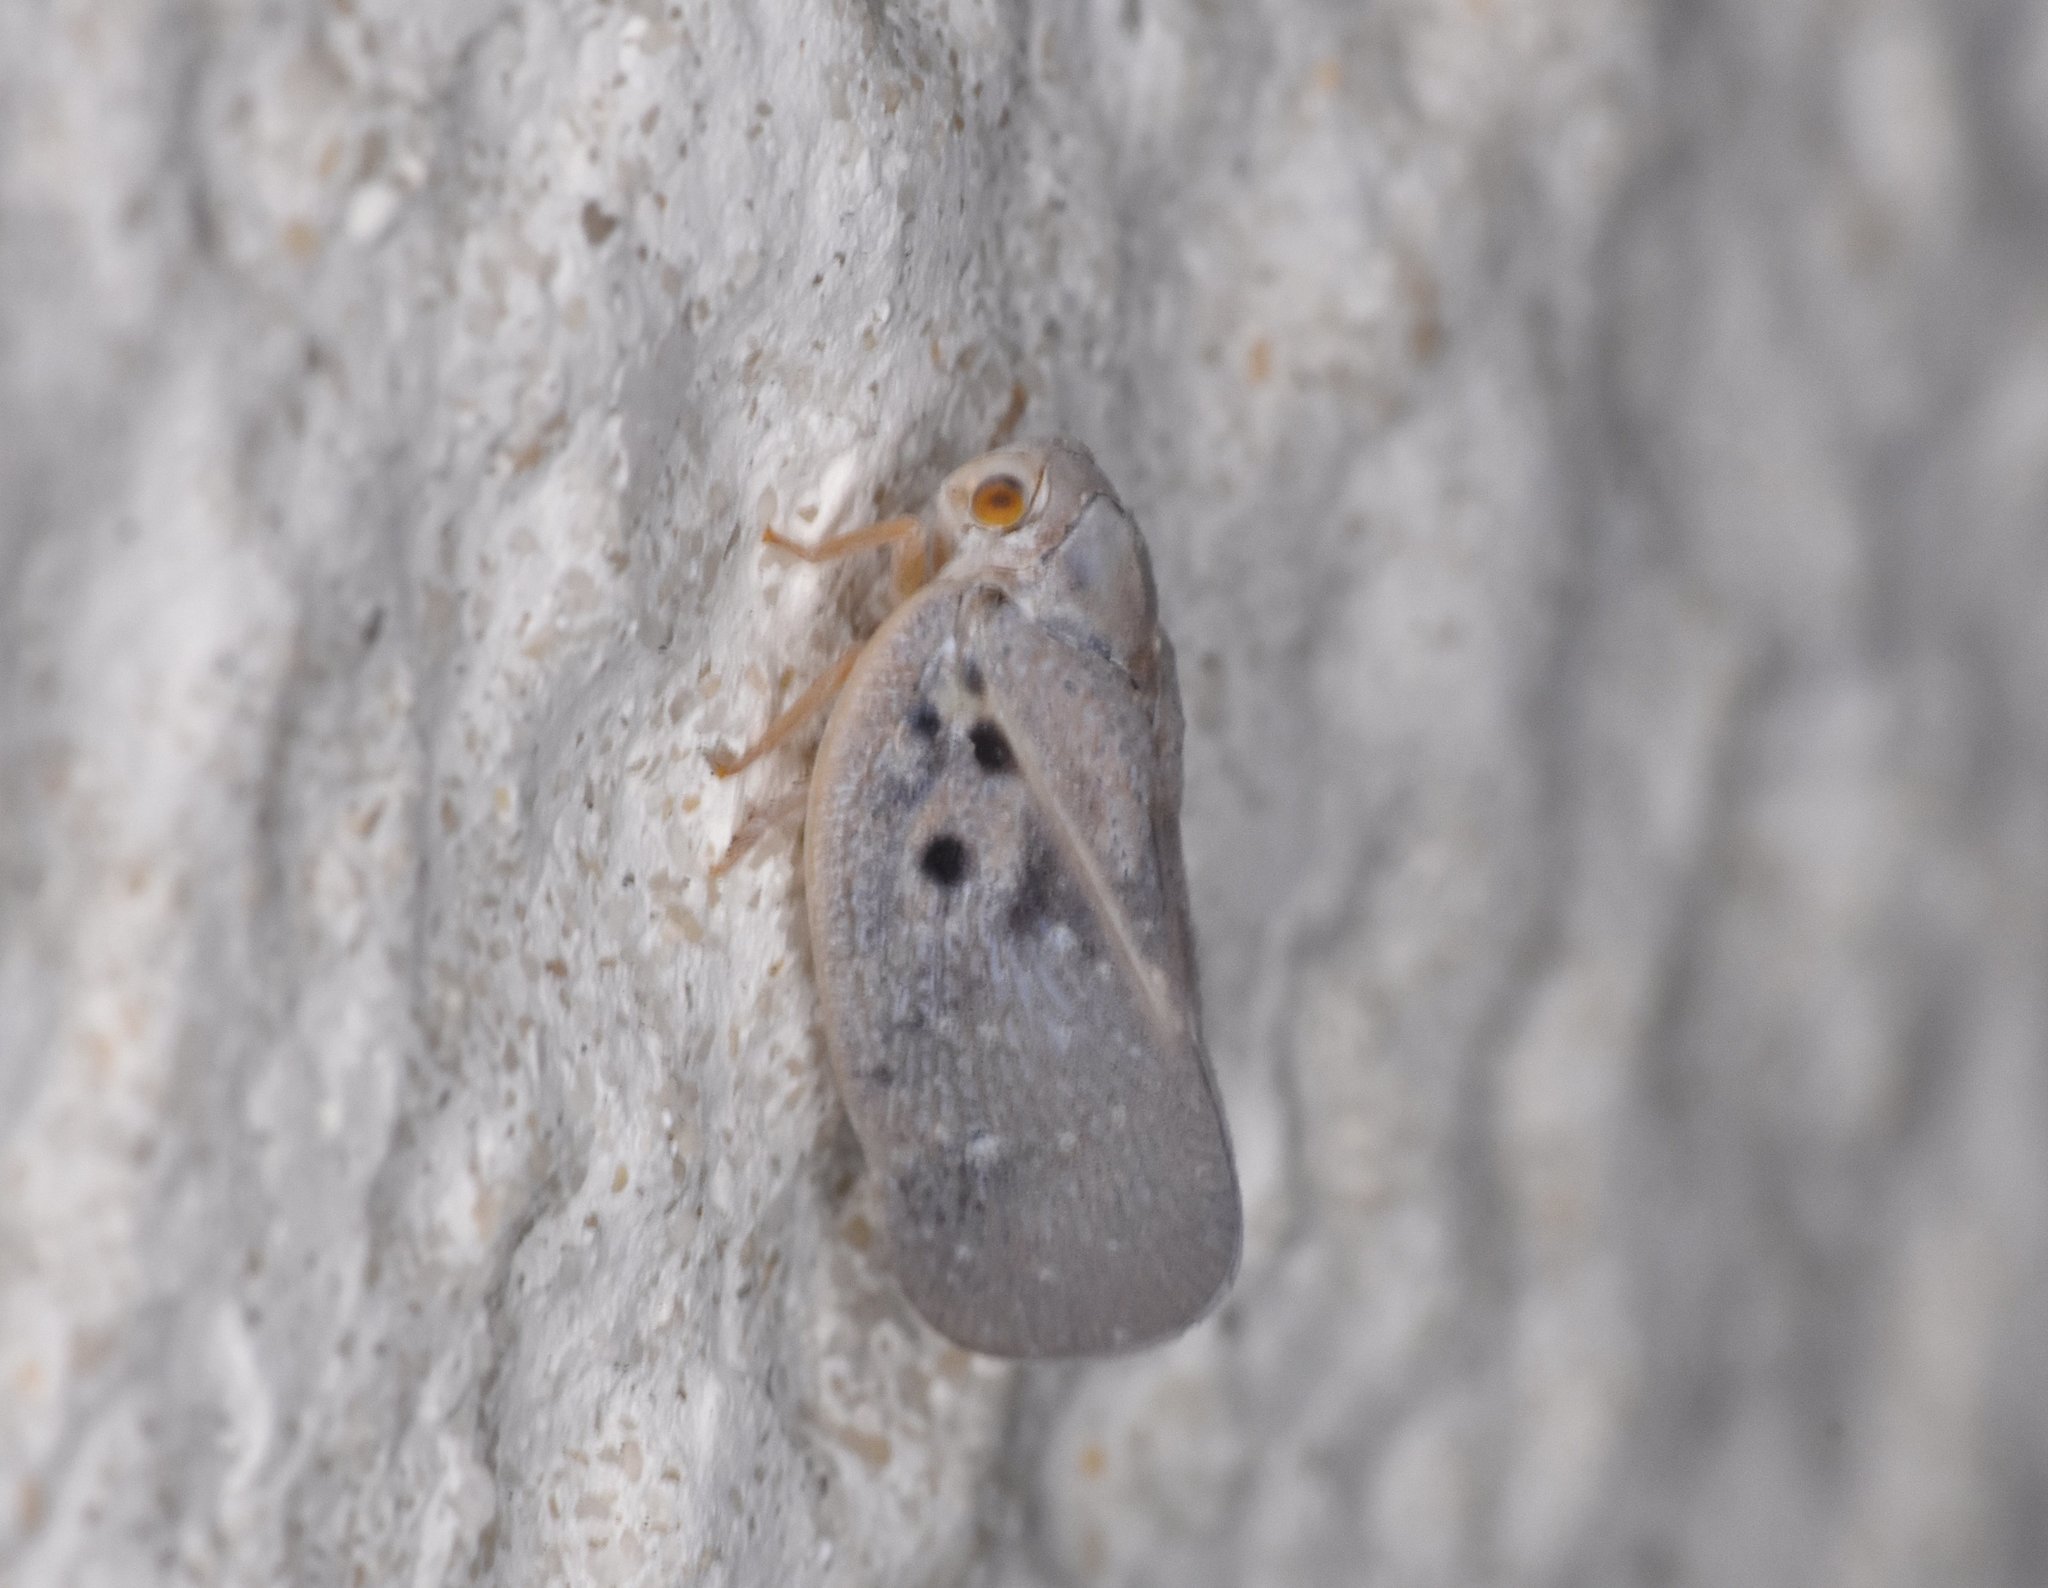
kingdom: Animalia
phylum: Arthropoda
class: Insecta
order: Hemiptera
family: Flatidae
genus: Metcalfa
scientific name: Metcalfa pruinosa
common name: Citrus flatid planthopper
